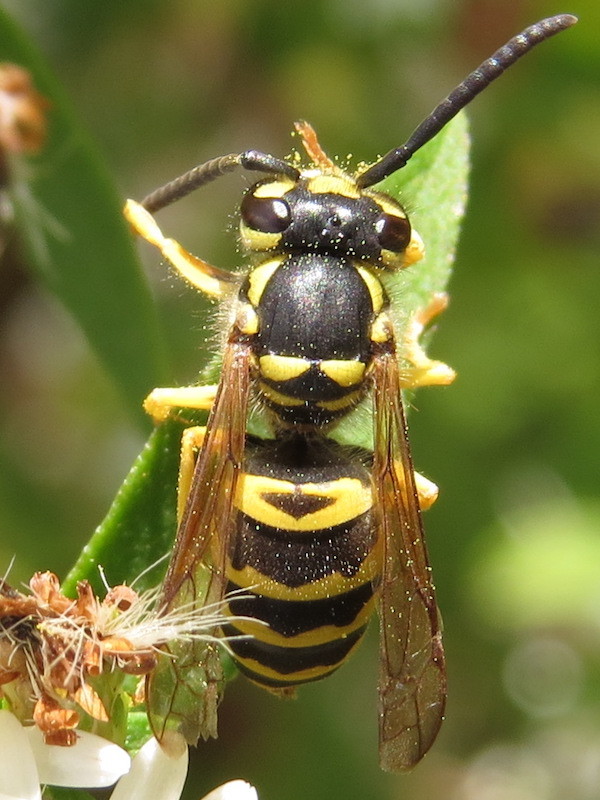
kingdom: Animalia
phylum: Arthropoda
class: Insecta
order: Hymenoptera
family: Vespidae
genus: Vespula
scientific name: Vespula maculifrons
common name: Eastern yellowjacket
